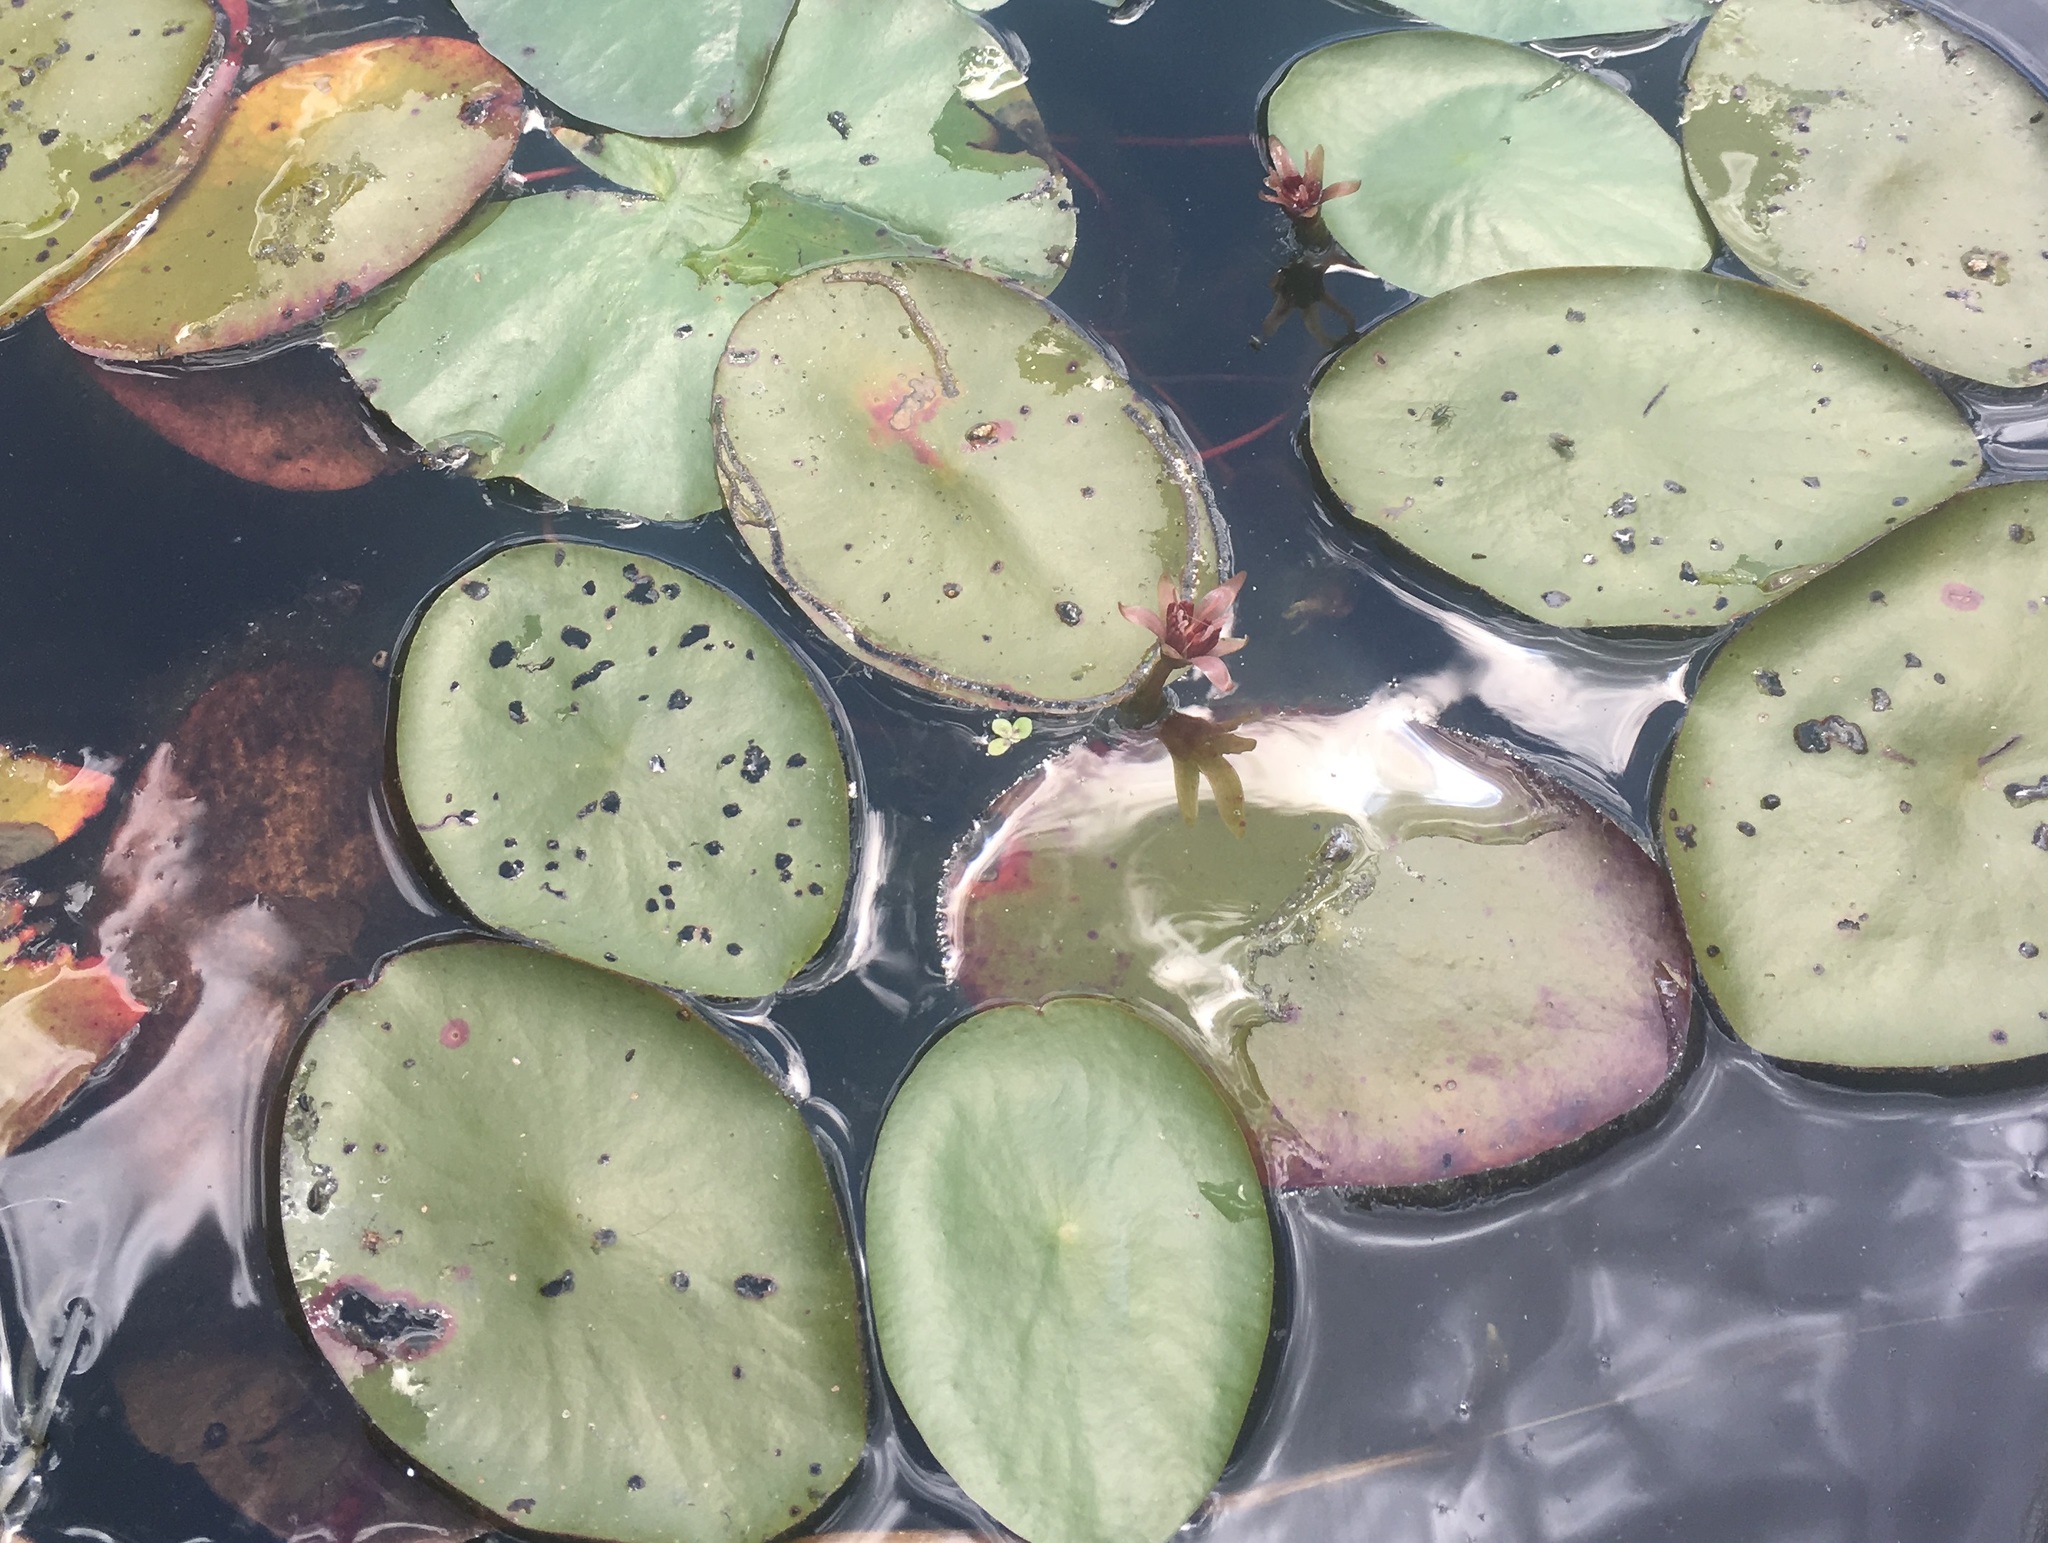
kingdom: Plantae
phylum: Tracheophyta
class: Magnoliopsida
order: Nymphaeales
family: Cabombaceae
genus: Brasenia
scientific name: Brasenia schreberi
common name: Water-shield
